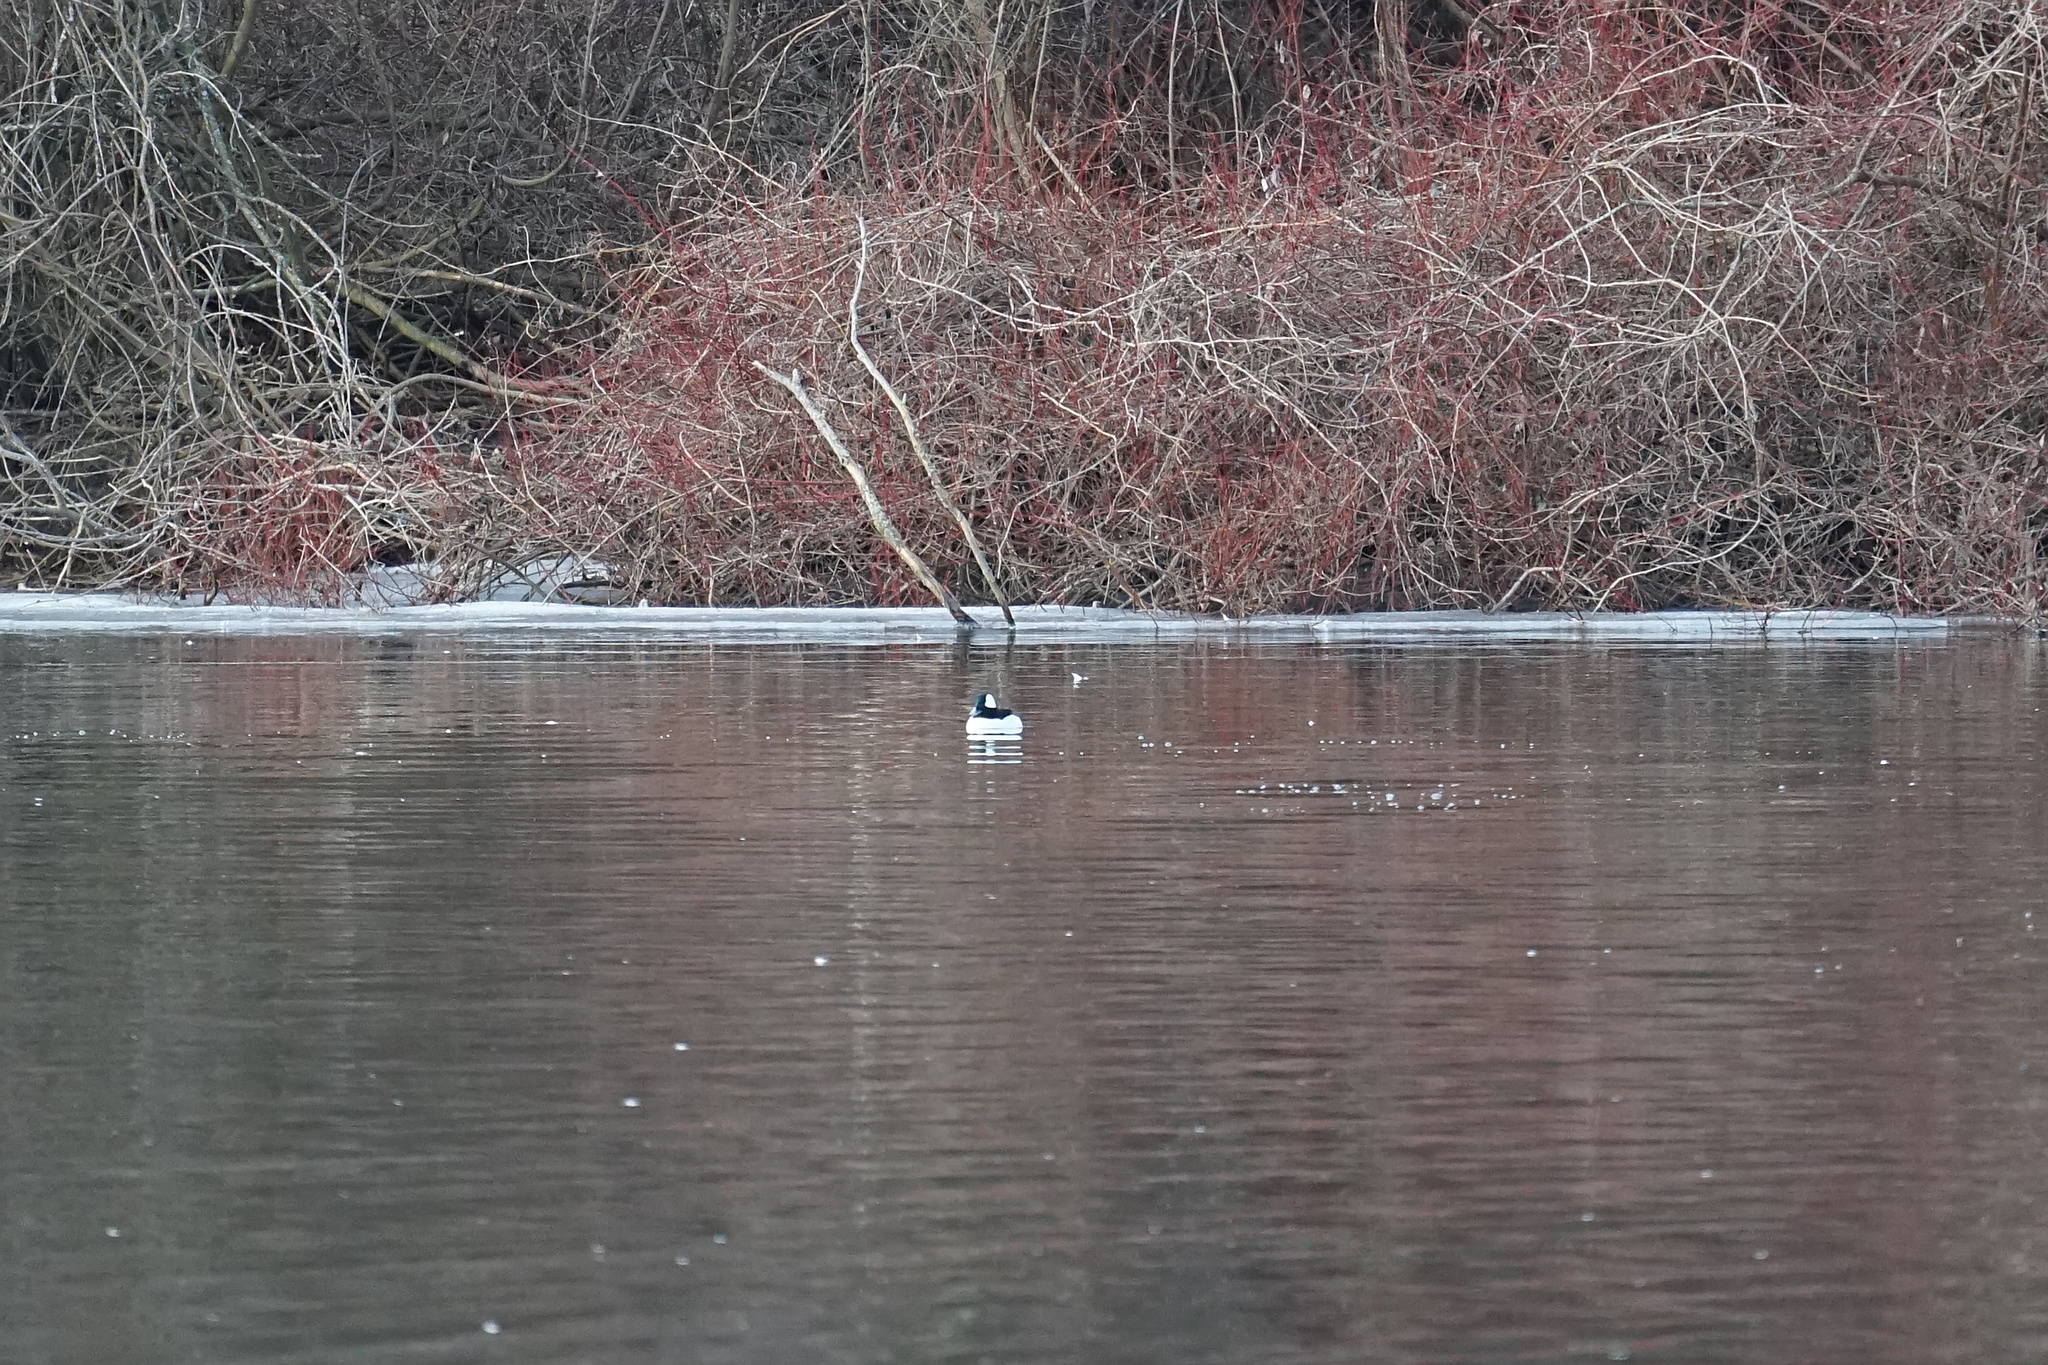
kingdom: Animalia
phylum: Chordata
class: Aves
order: Anseriformes
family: Anatidae
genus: Bucephala
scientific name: Bucephala albeola
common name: Bufflehead
